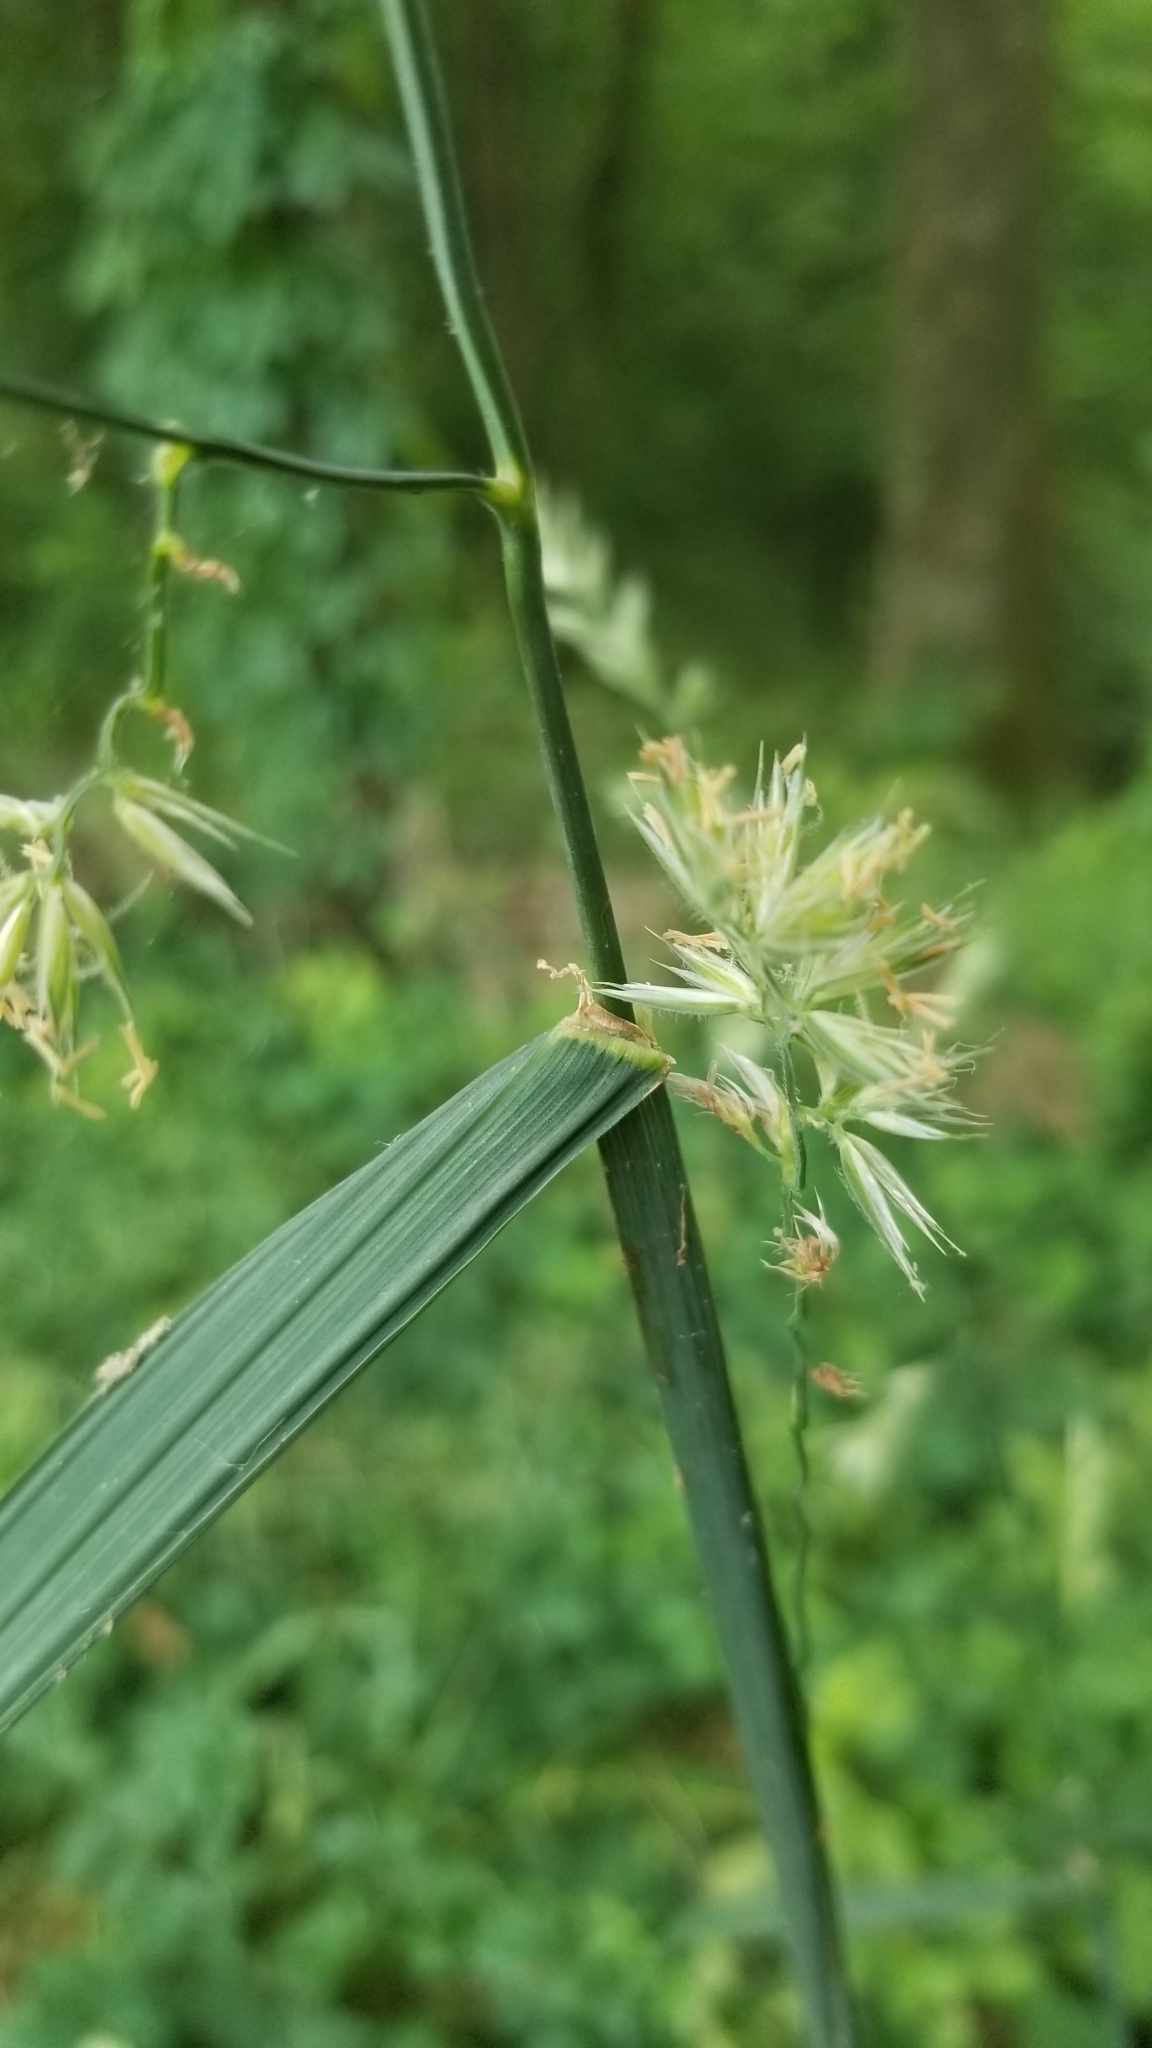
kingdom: Plantae
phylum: Tracheophyta
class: Liliopsida
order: Poales
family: Poaceae
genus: Dactylis
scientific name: Dactylis glomerata
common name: Orchardgrass
